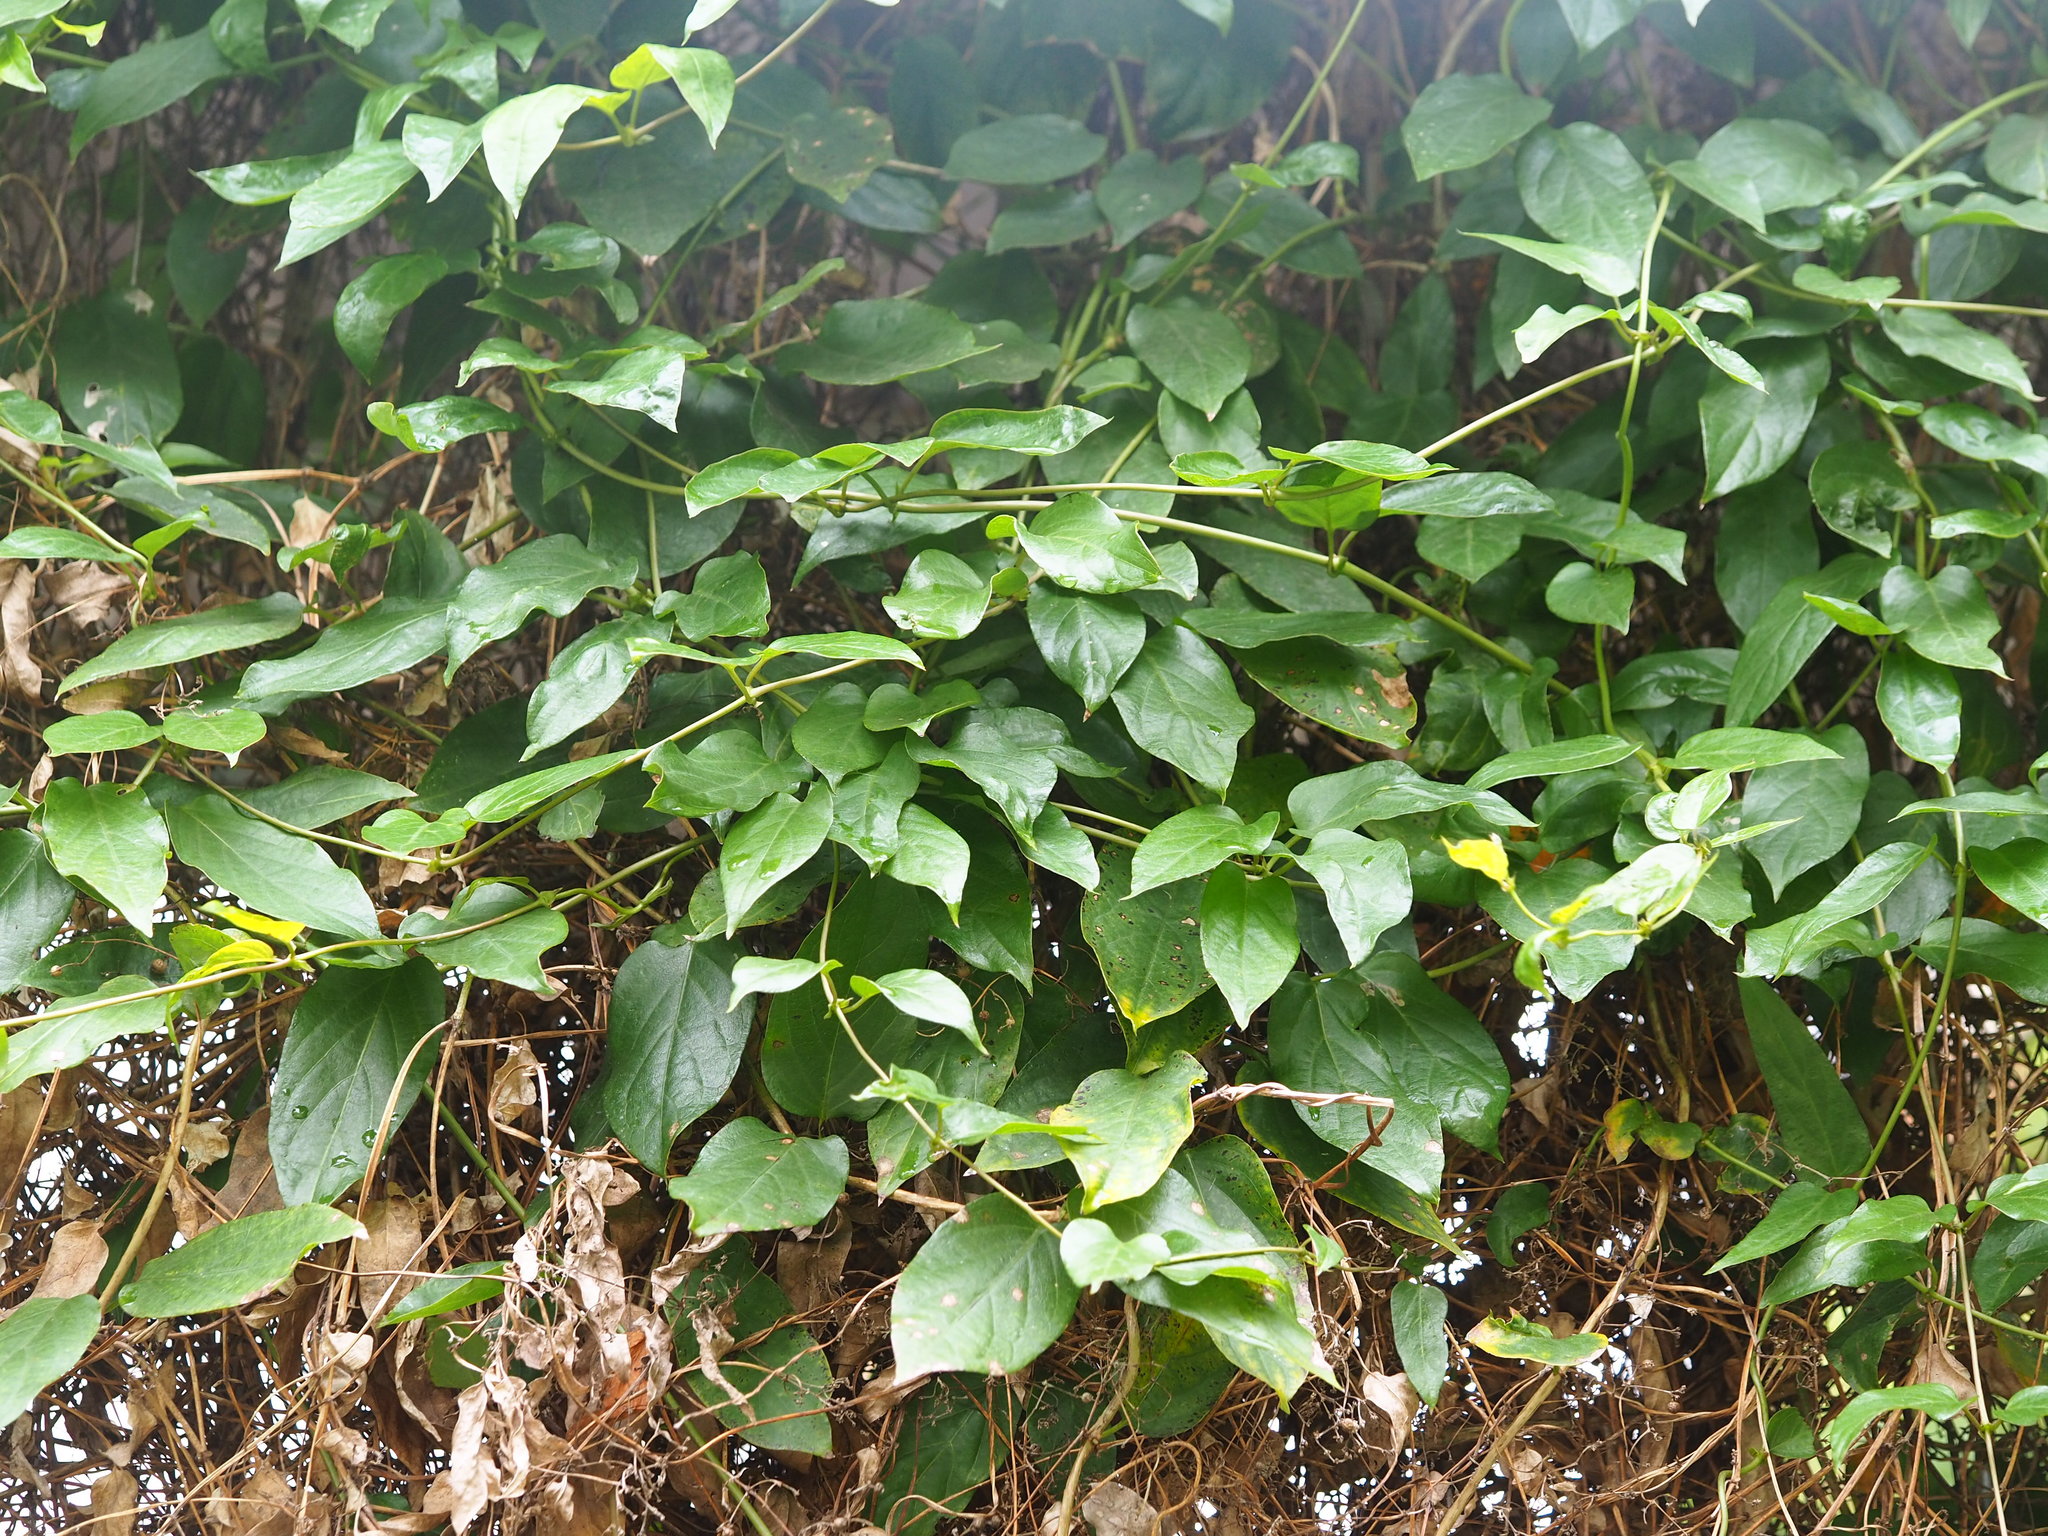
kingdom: Plantae
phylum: Tracheophyta
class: Magnoliopsida
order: Asterales
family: Asteraceae
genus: Chromolaena
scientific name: Chromolaena odorata
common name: Siamweed
